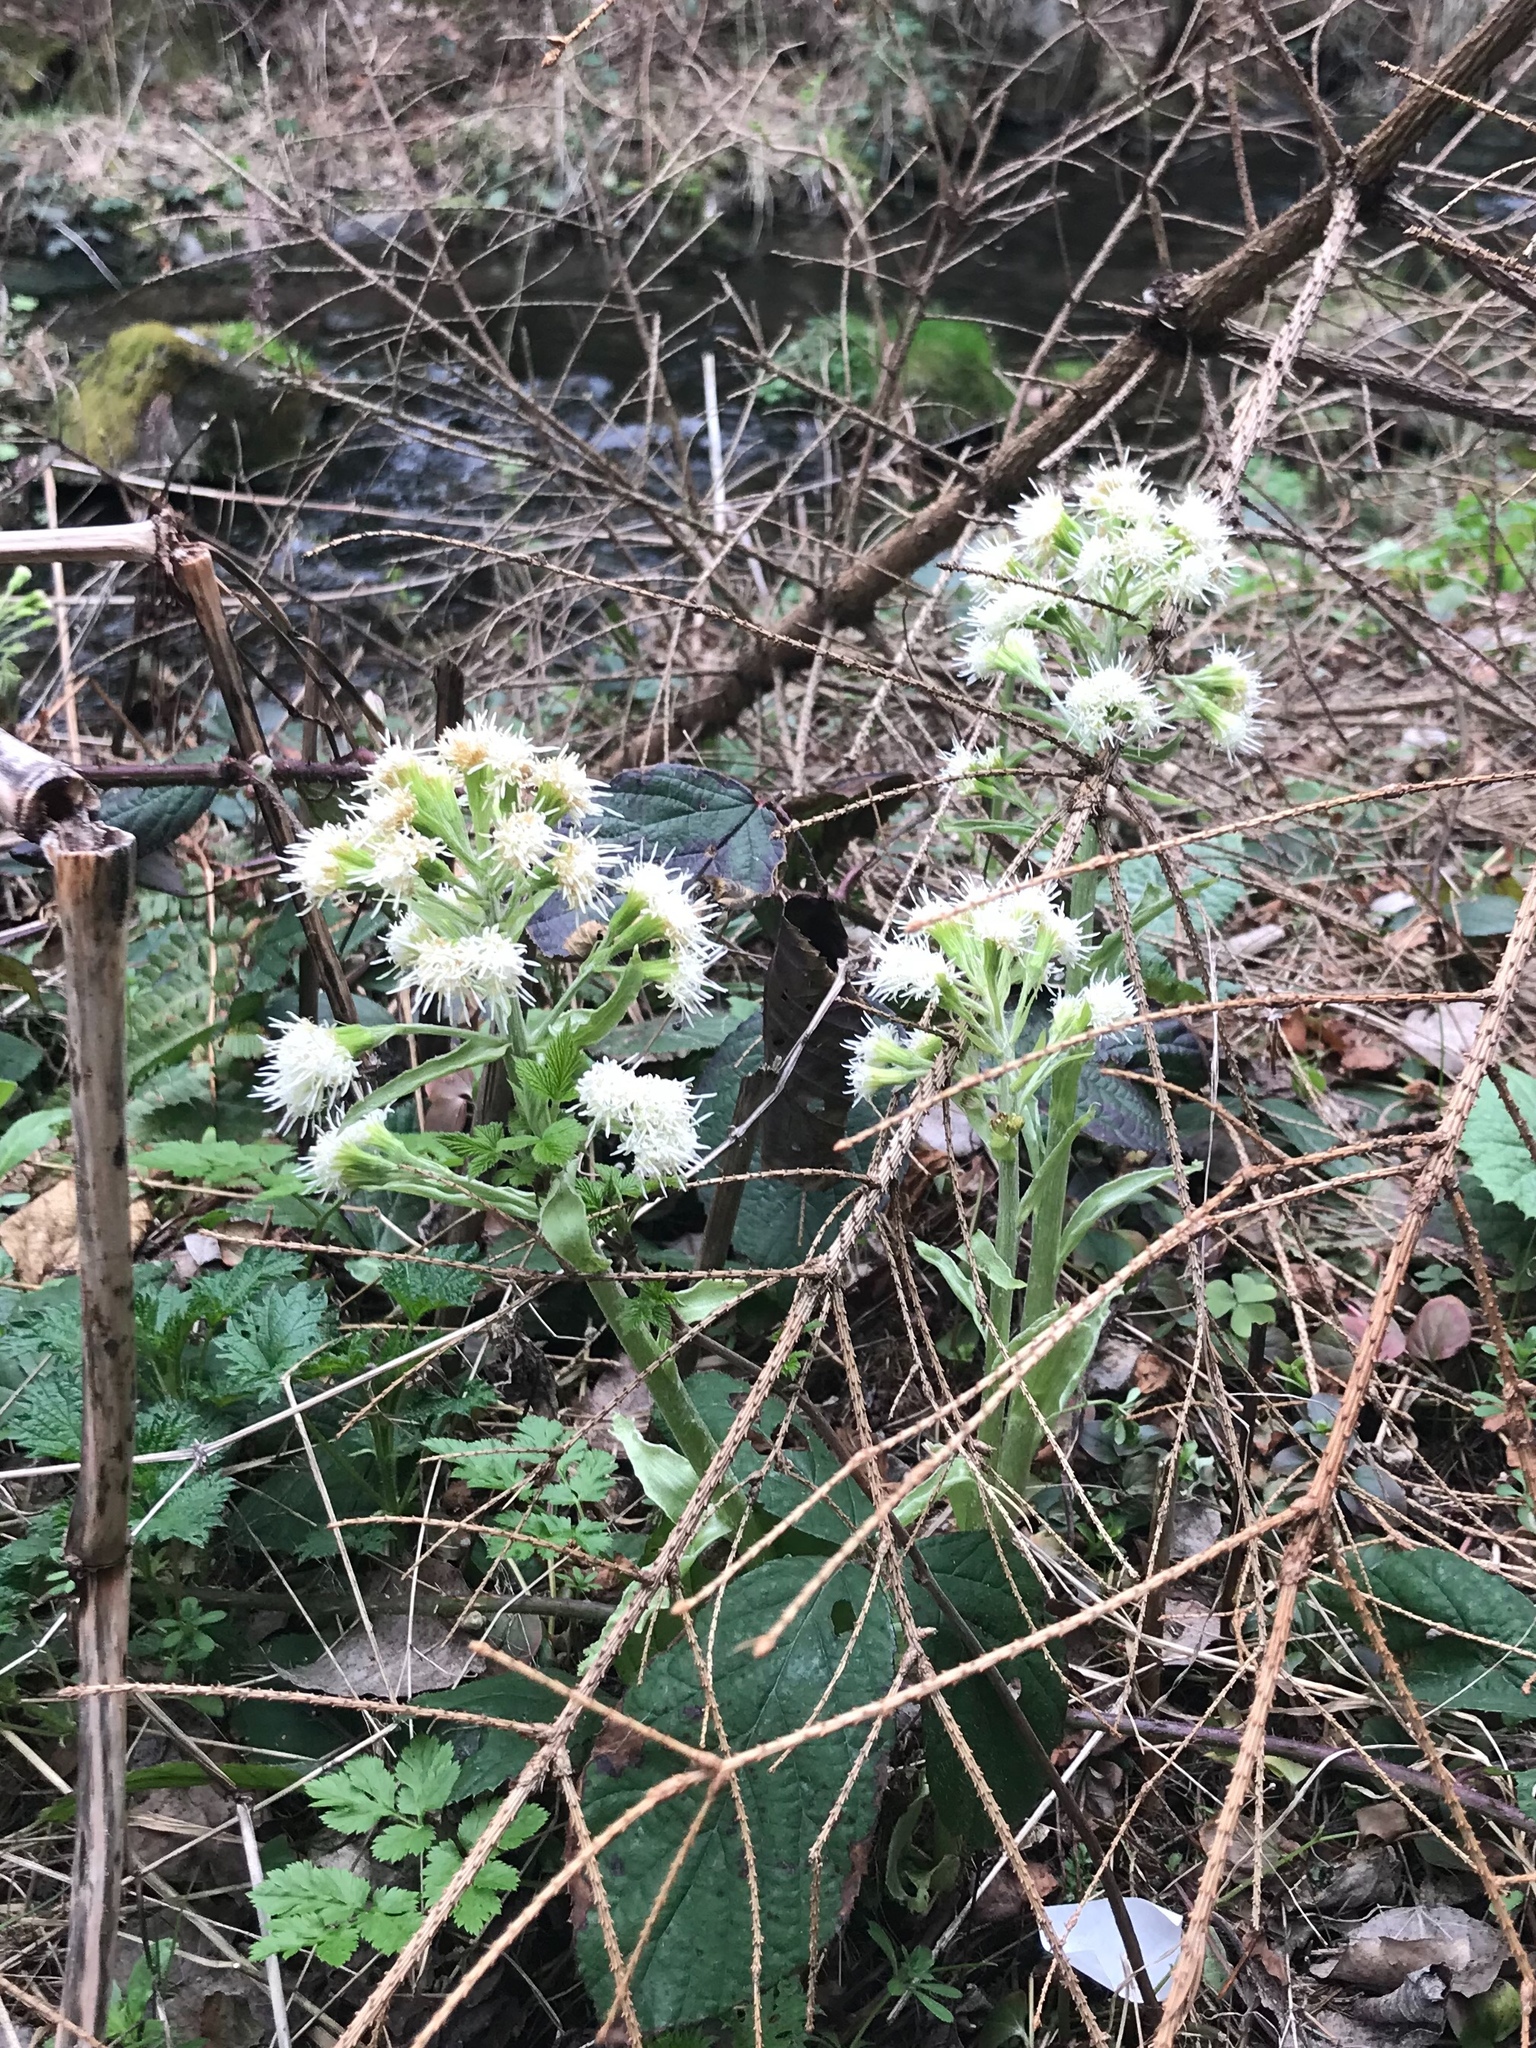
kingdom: Plantae
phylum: Tracheophyta
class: Magnoliopsida
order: Asterales
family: Asteraceae
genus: Petasites
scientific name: Petasites albus
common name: White butterbur
